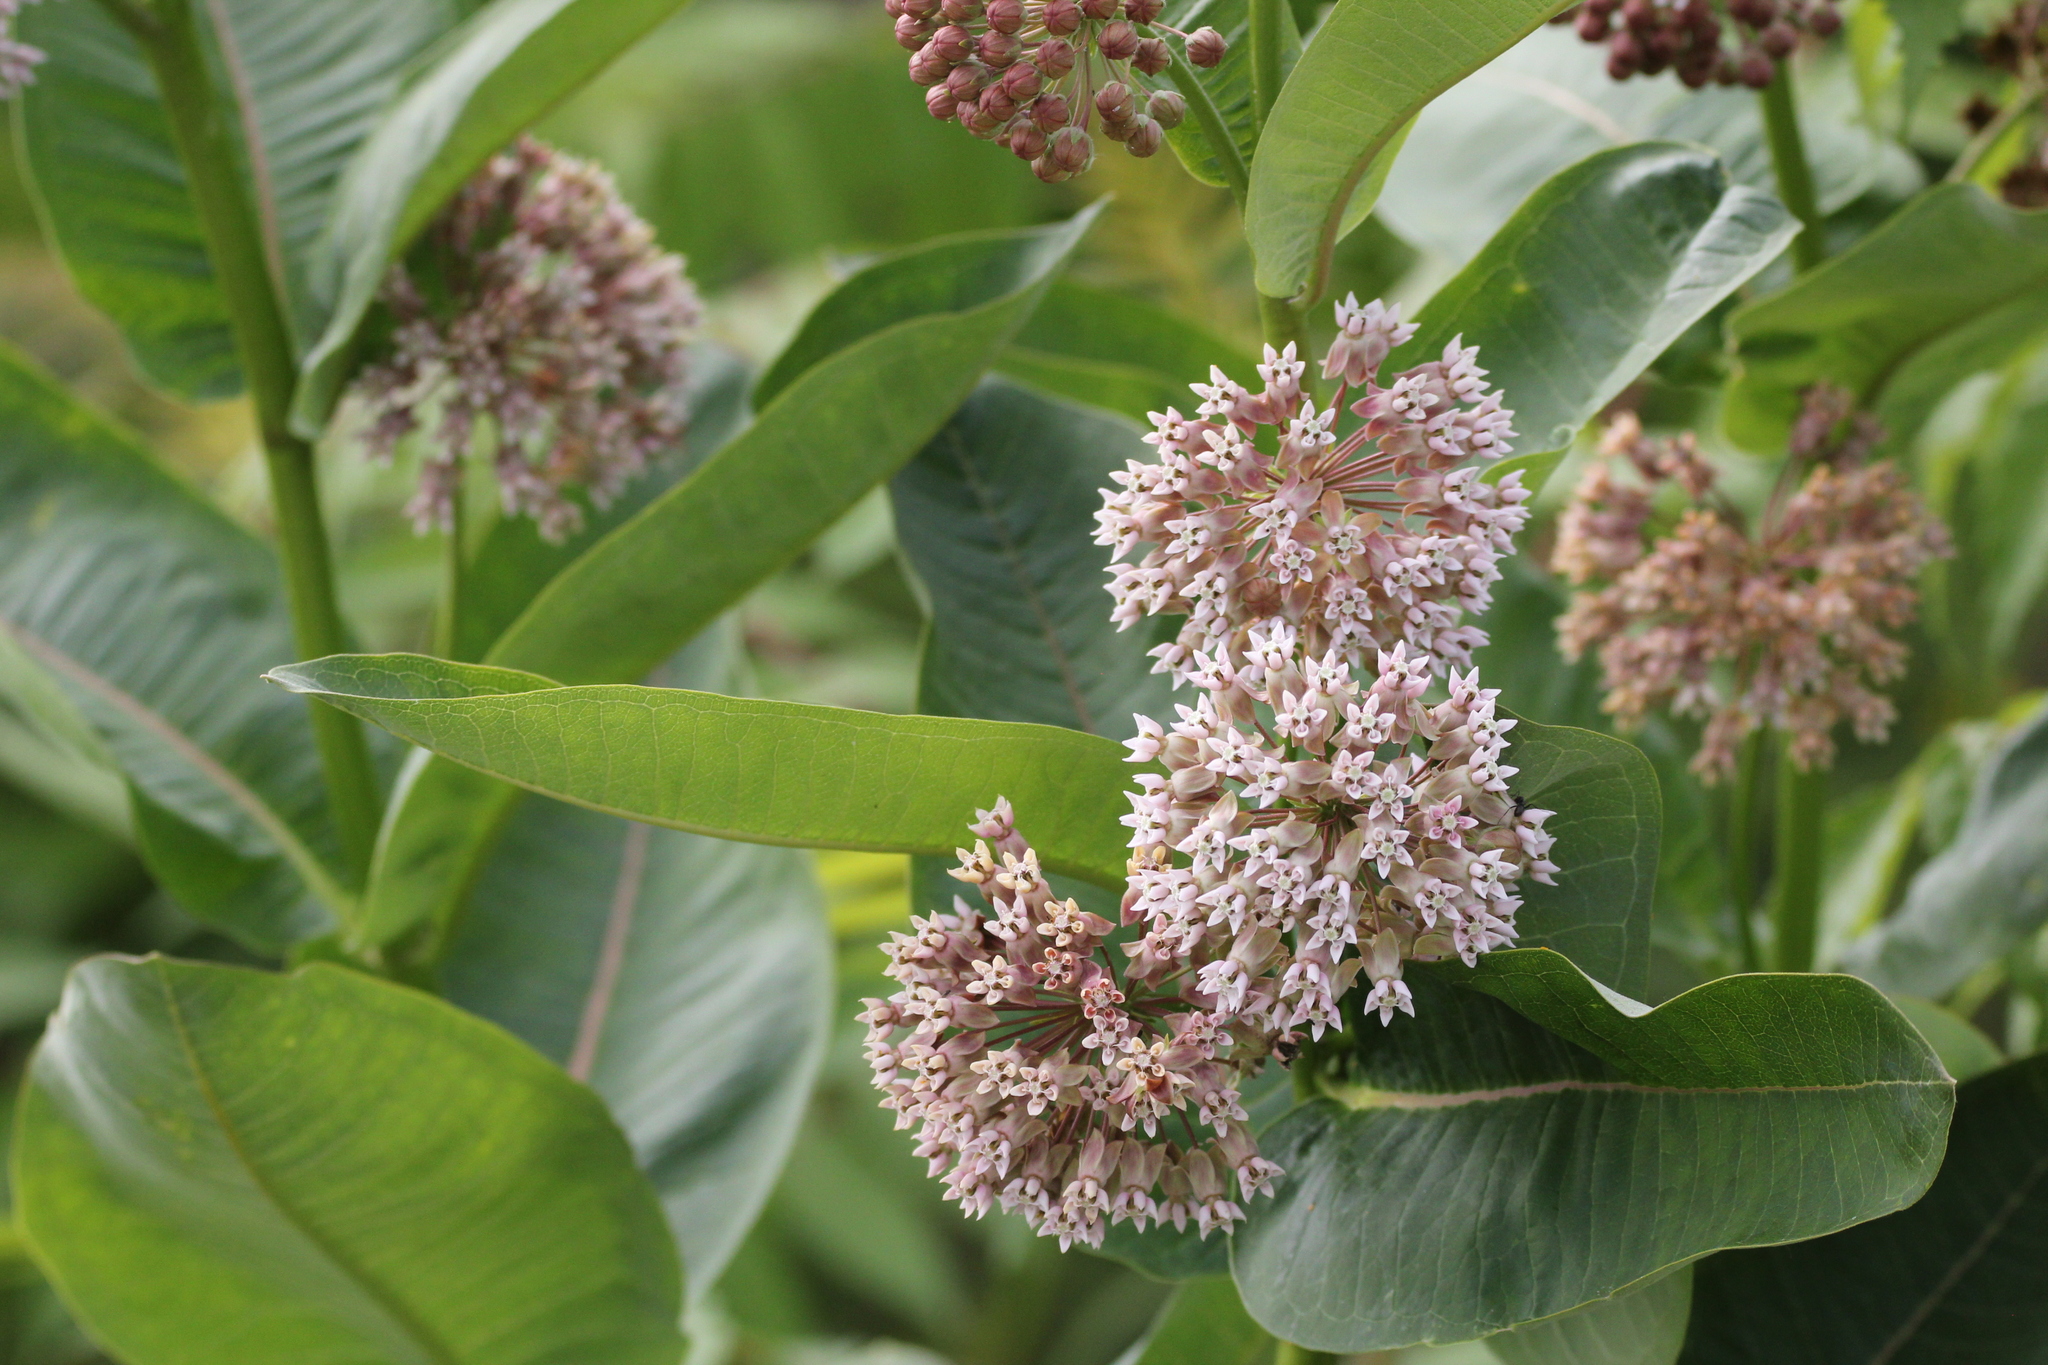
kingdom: Plantae
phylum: Tracheophyta
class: Magnoliopsida
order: Gentianales
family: Apocynaceae
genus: Asclepias
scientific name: Asclepias syriaca
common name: Common milkweed
